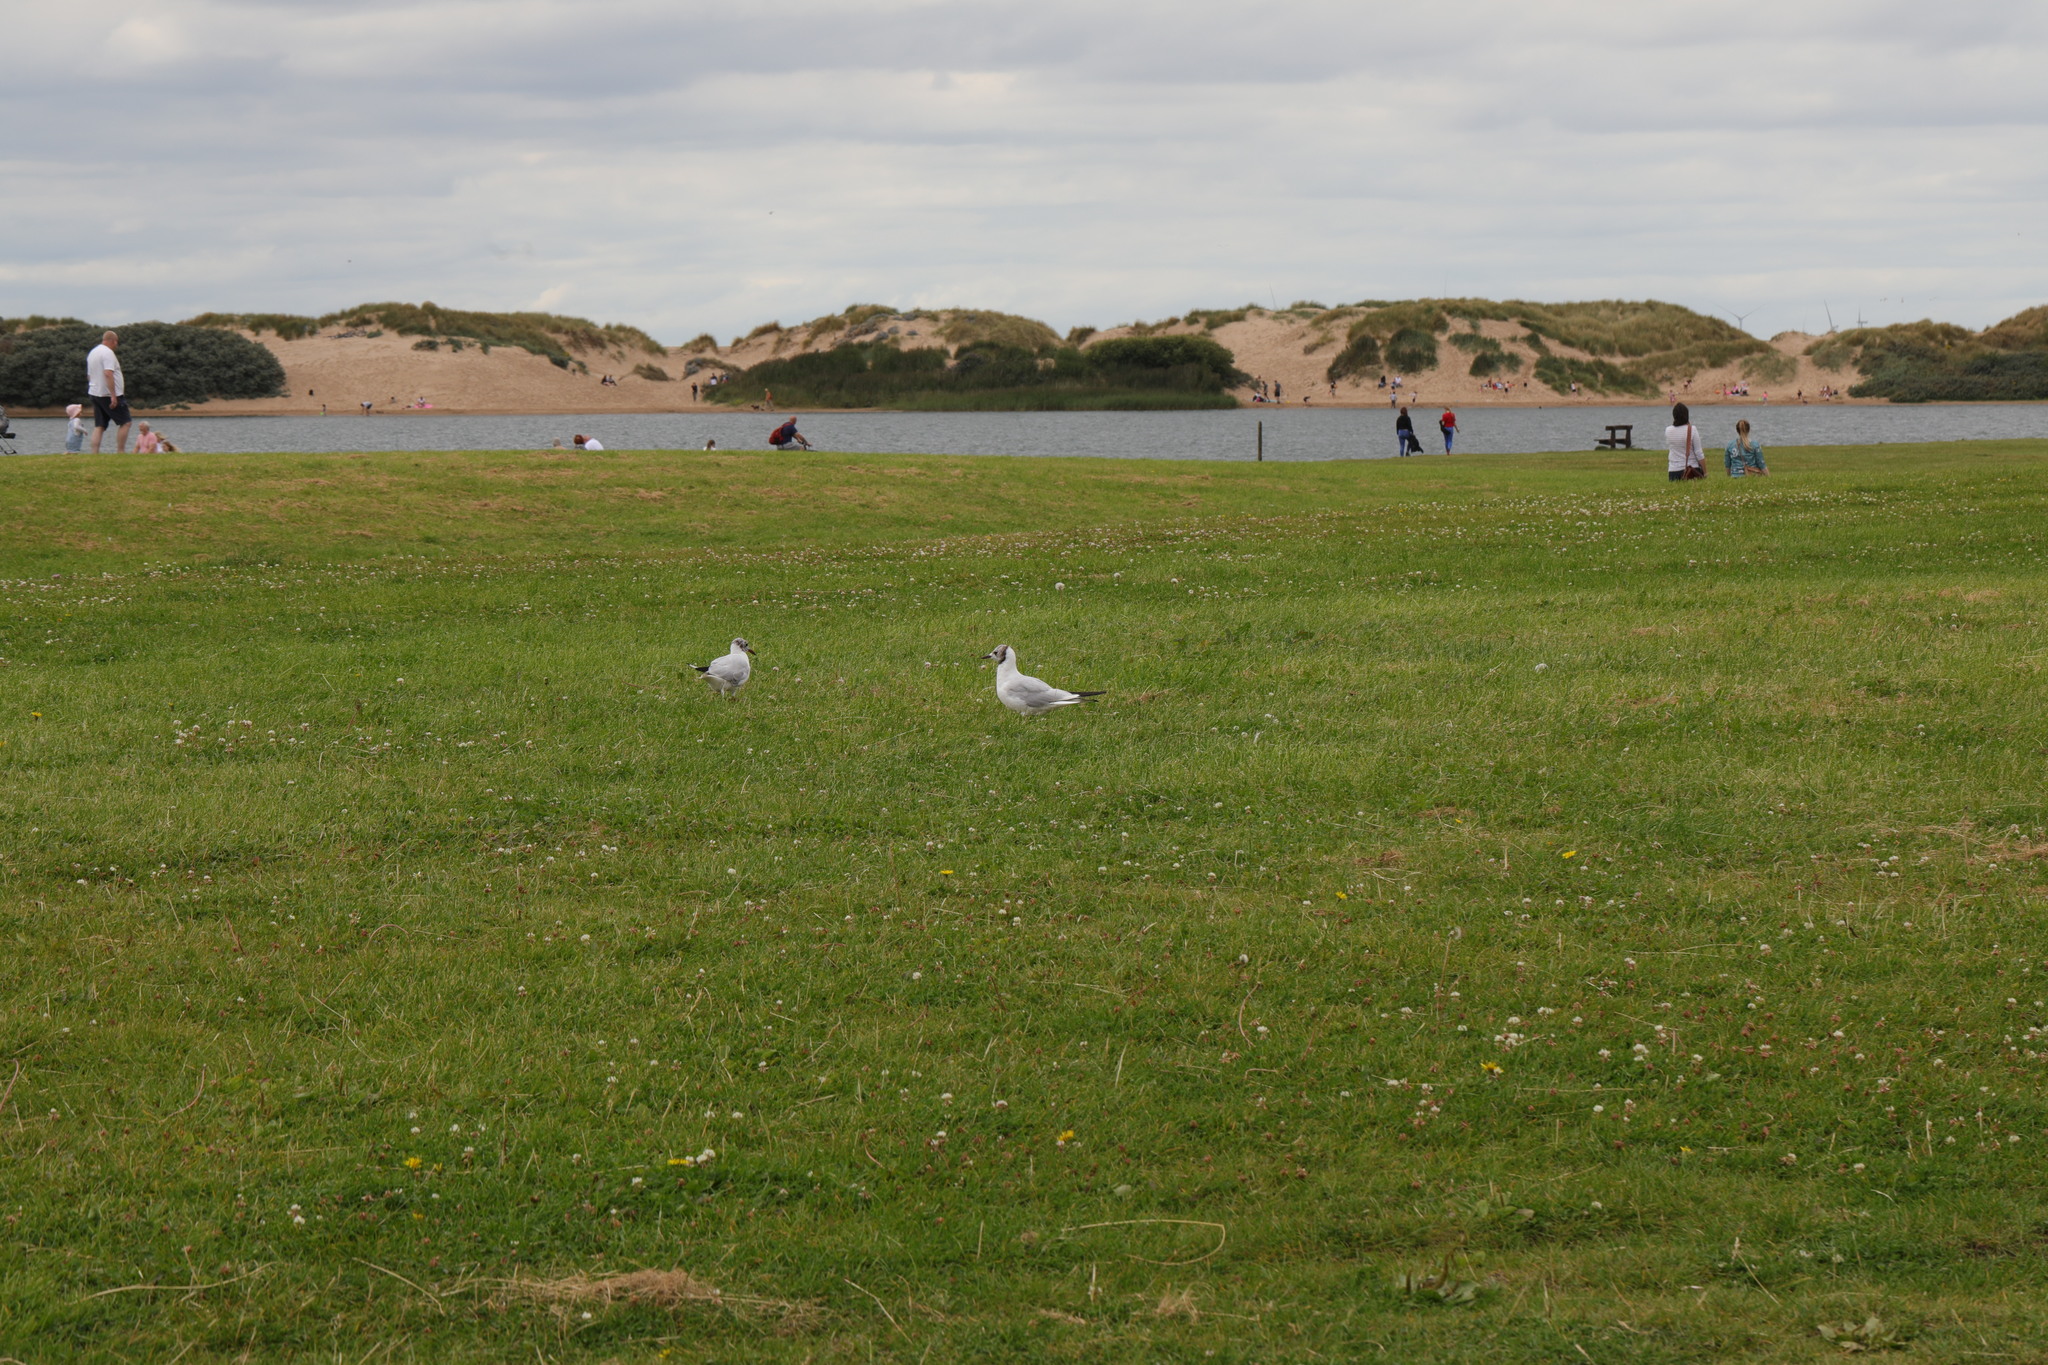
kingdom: Animalia
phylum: Chordata
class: Aves
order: Charadriiformes
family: Laridae
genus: Chroicocephalus
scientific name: Chroicocephalus ridibundus
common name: Black-headed gull
